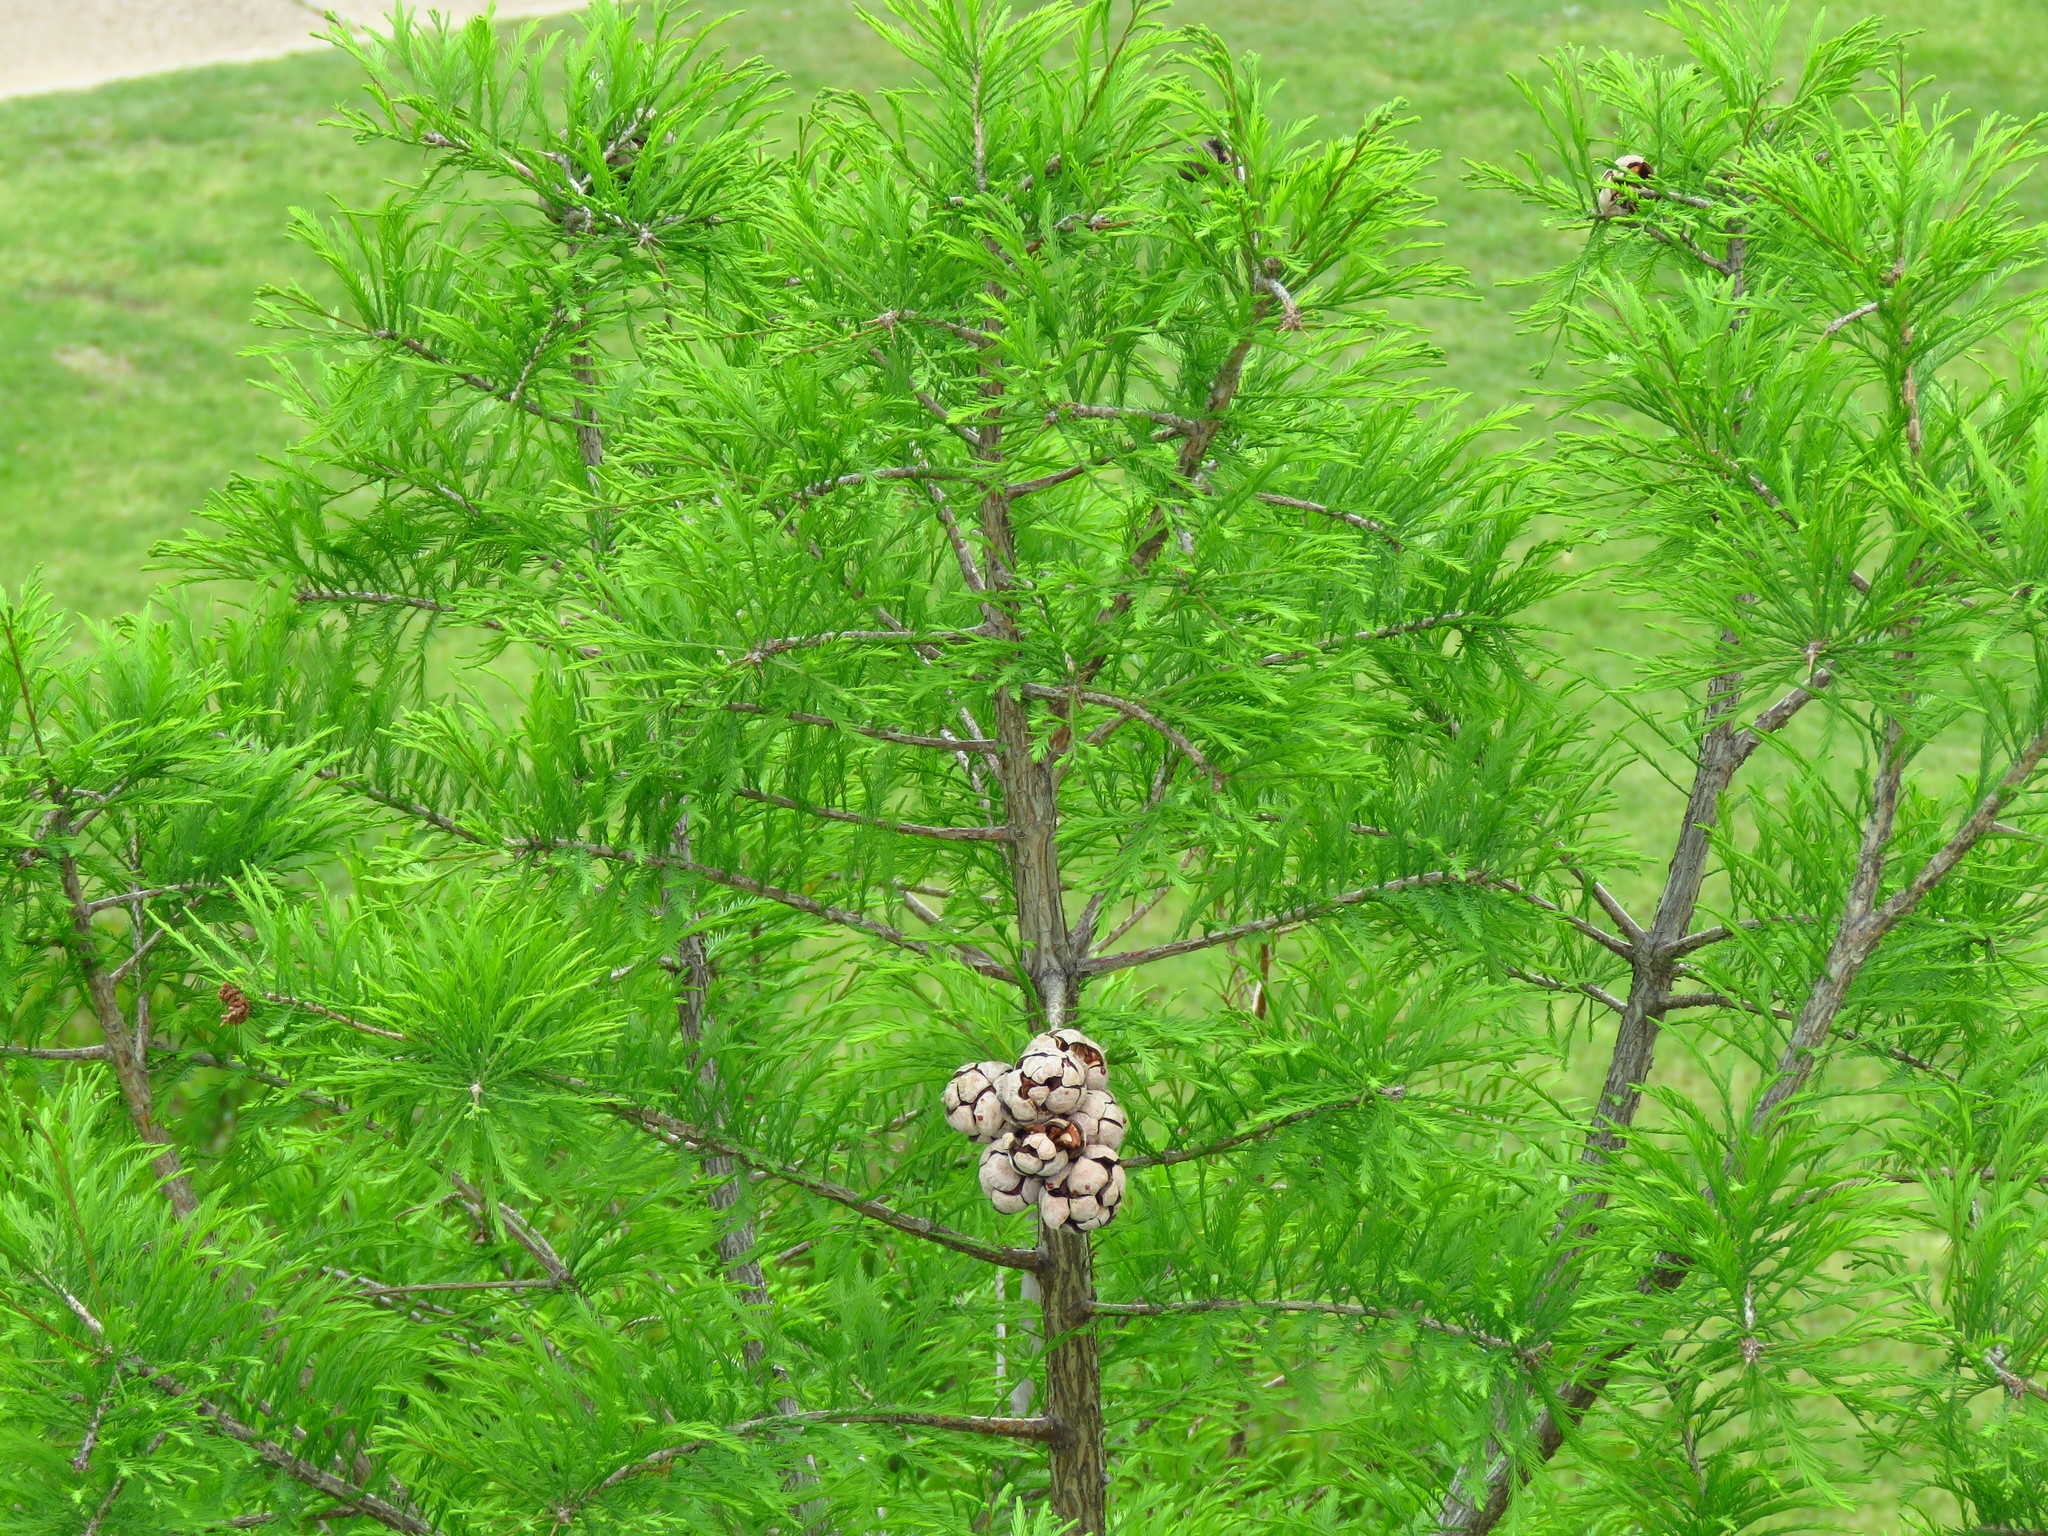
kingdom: Plantae
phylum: Tracheophyta
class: Pinopsida
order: Pinales
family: Cupressaceae
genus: Taxodium
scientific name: Taxodium distichum
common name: Bald cypress
